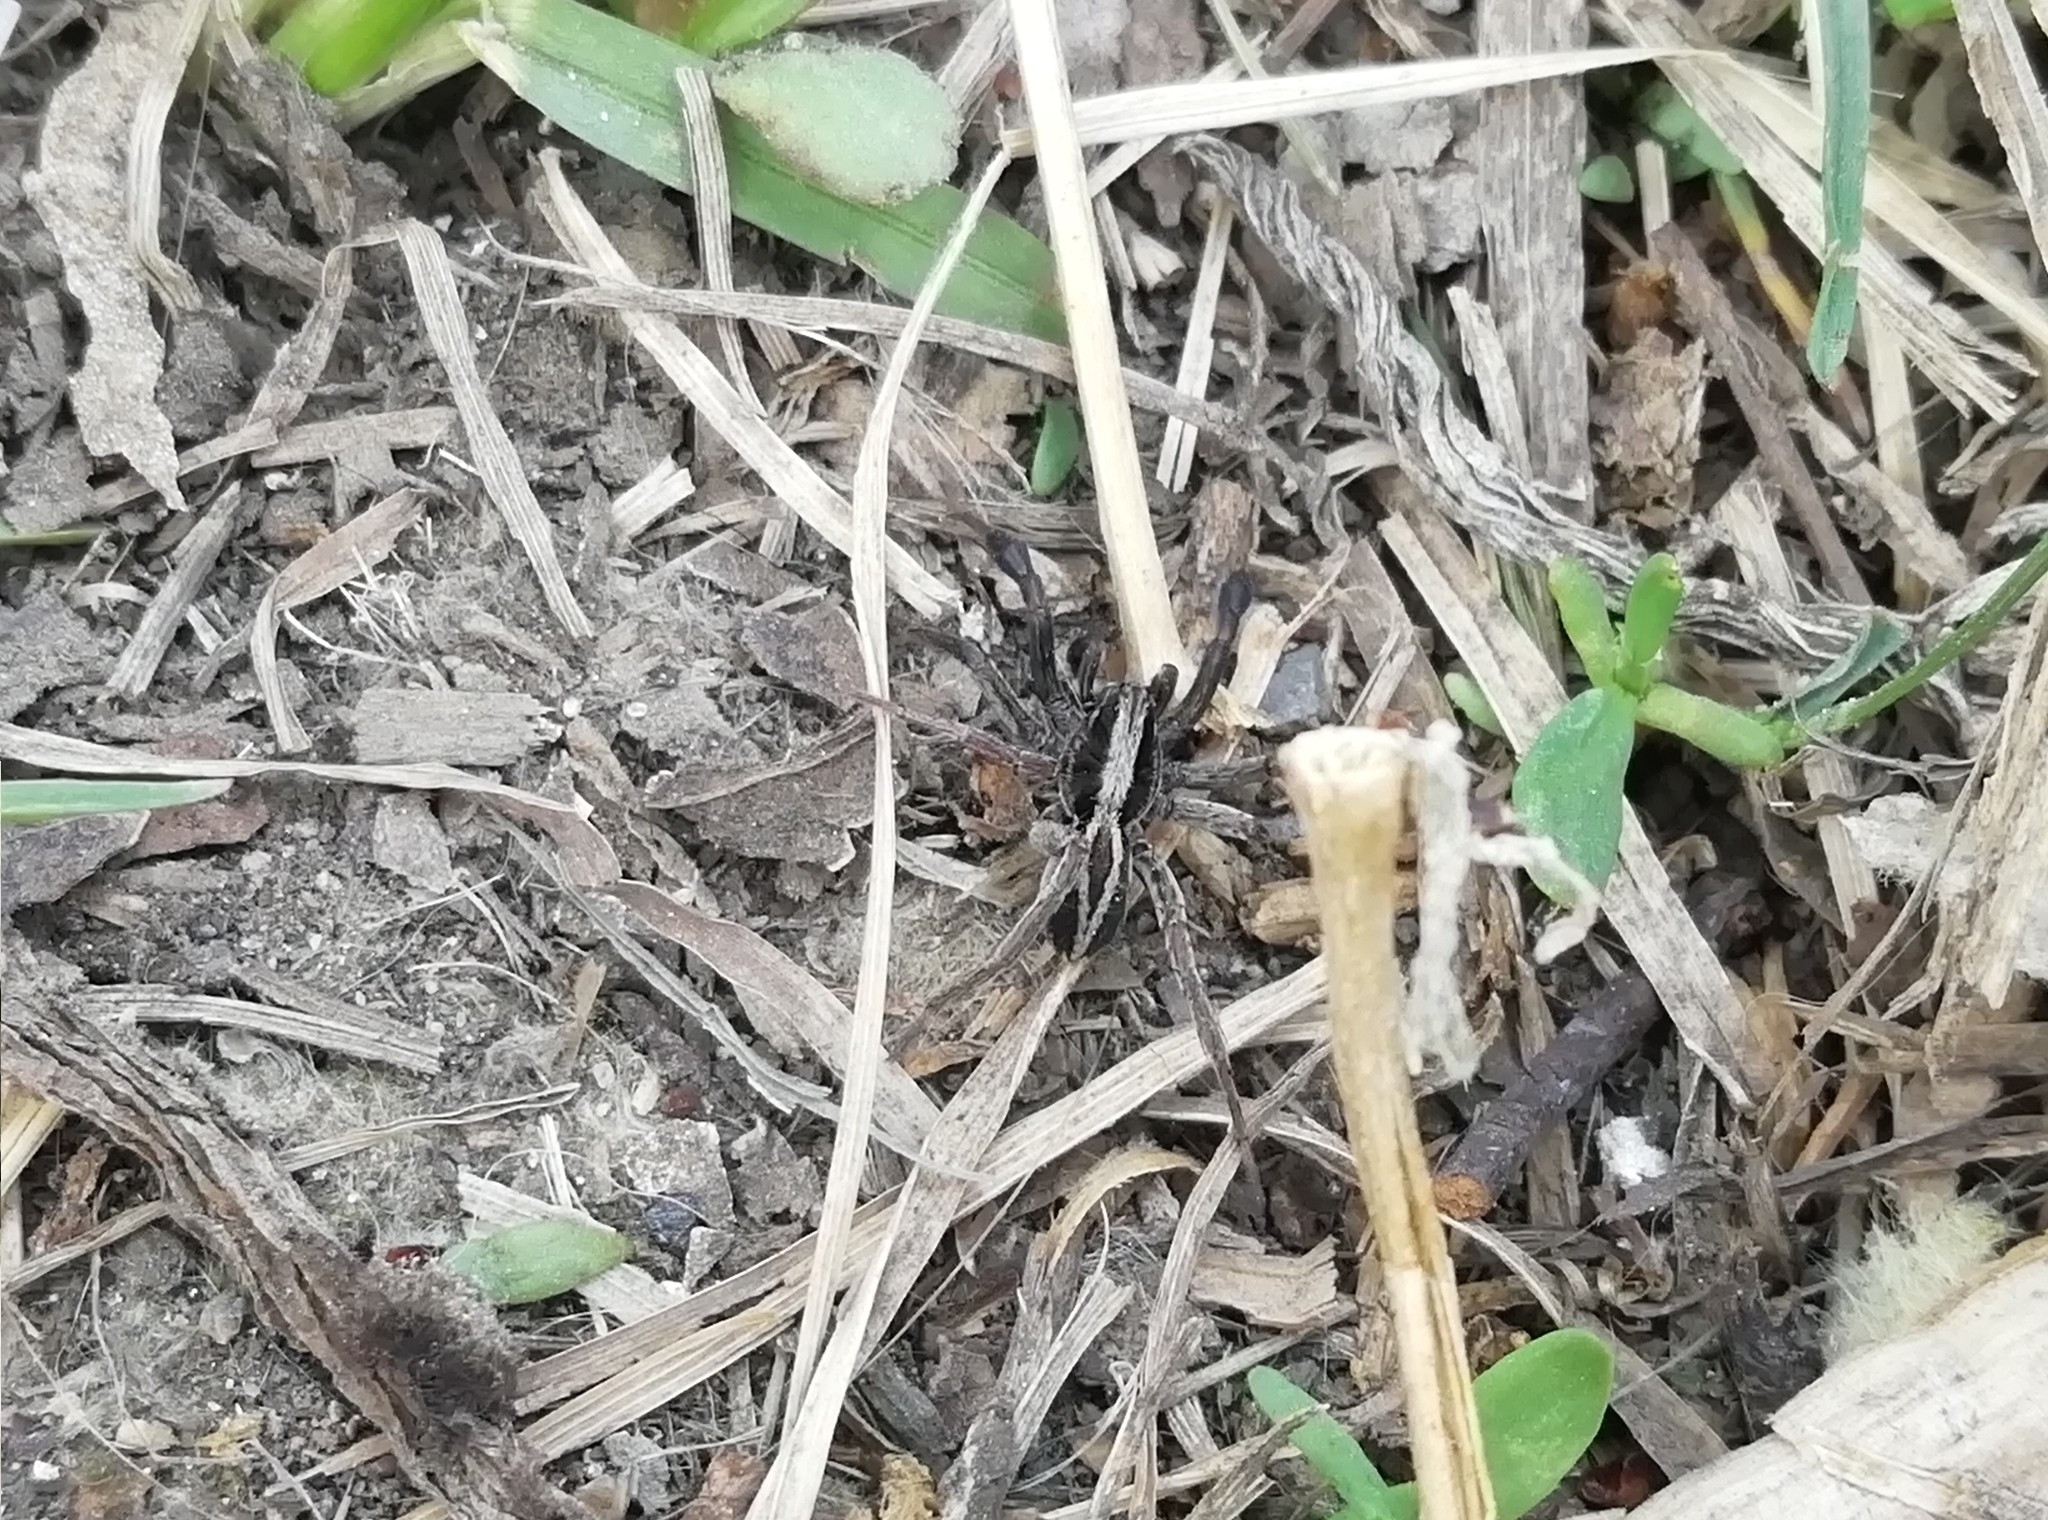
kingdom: Animalia
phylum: Arthropoda
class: Arachnida
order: Araneae
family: Lycosidae
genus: Alopecosa
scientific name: Alopecosa cuneata
